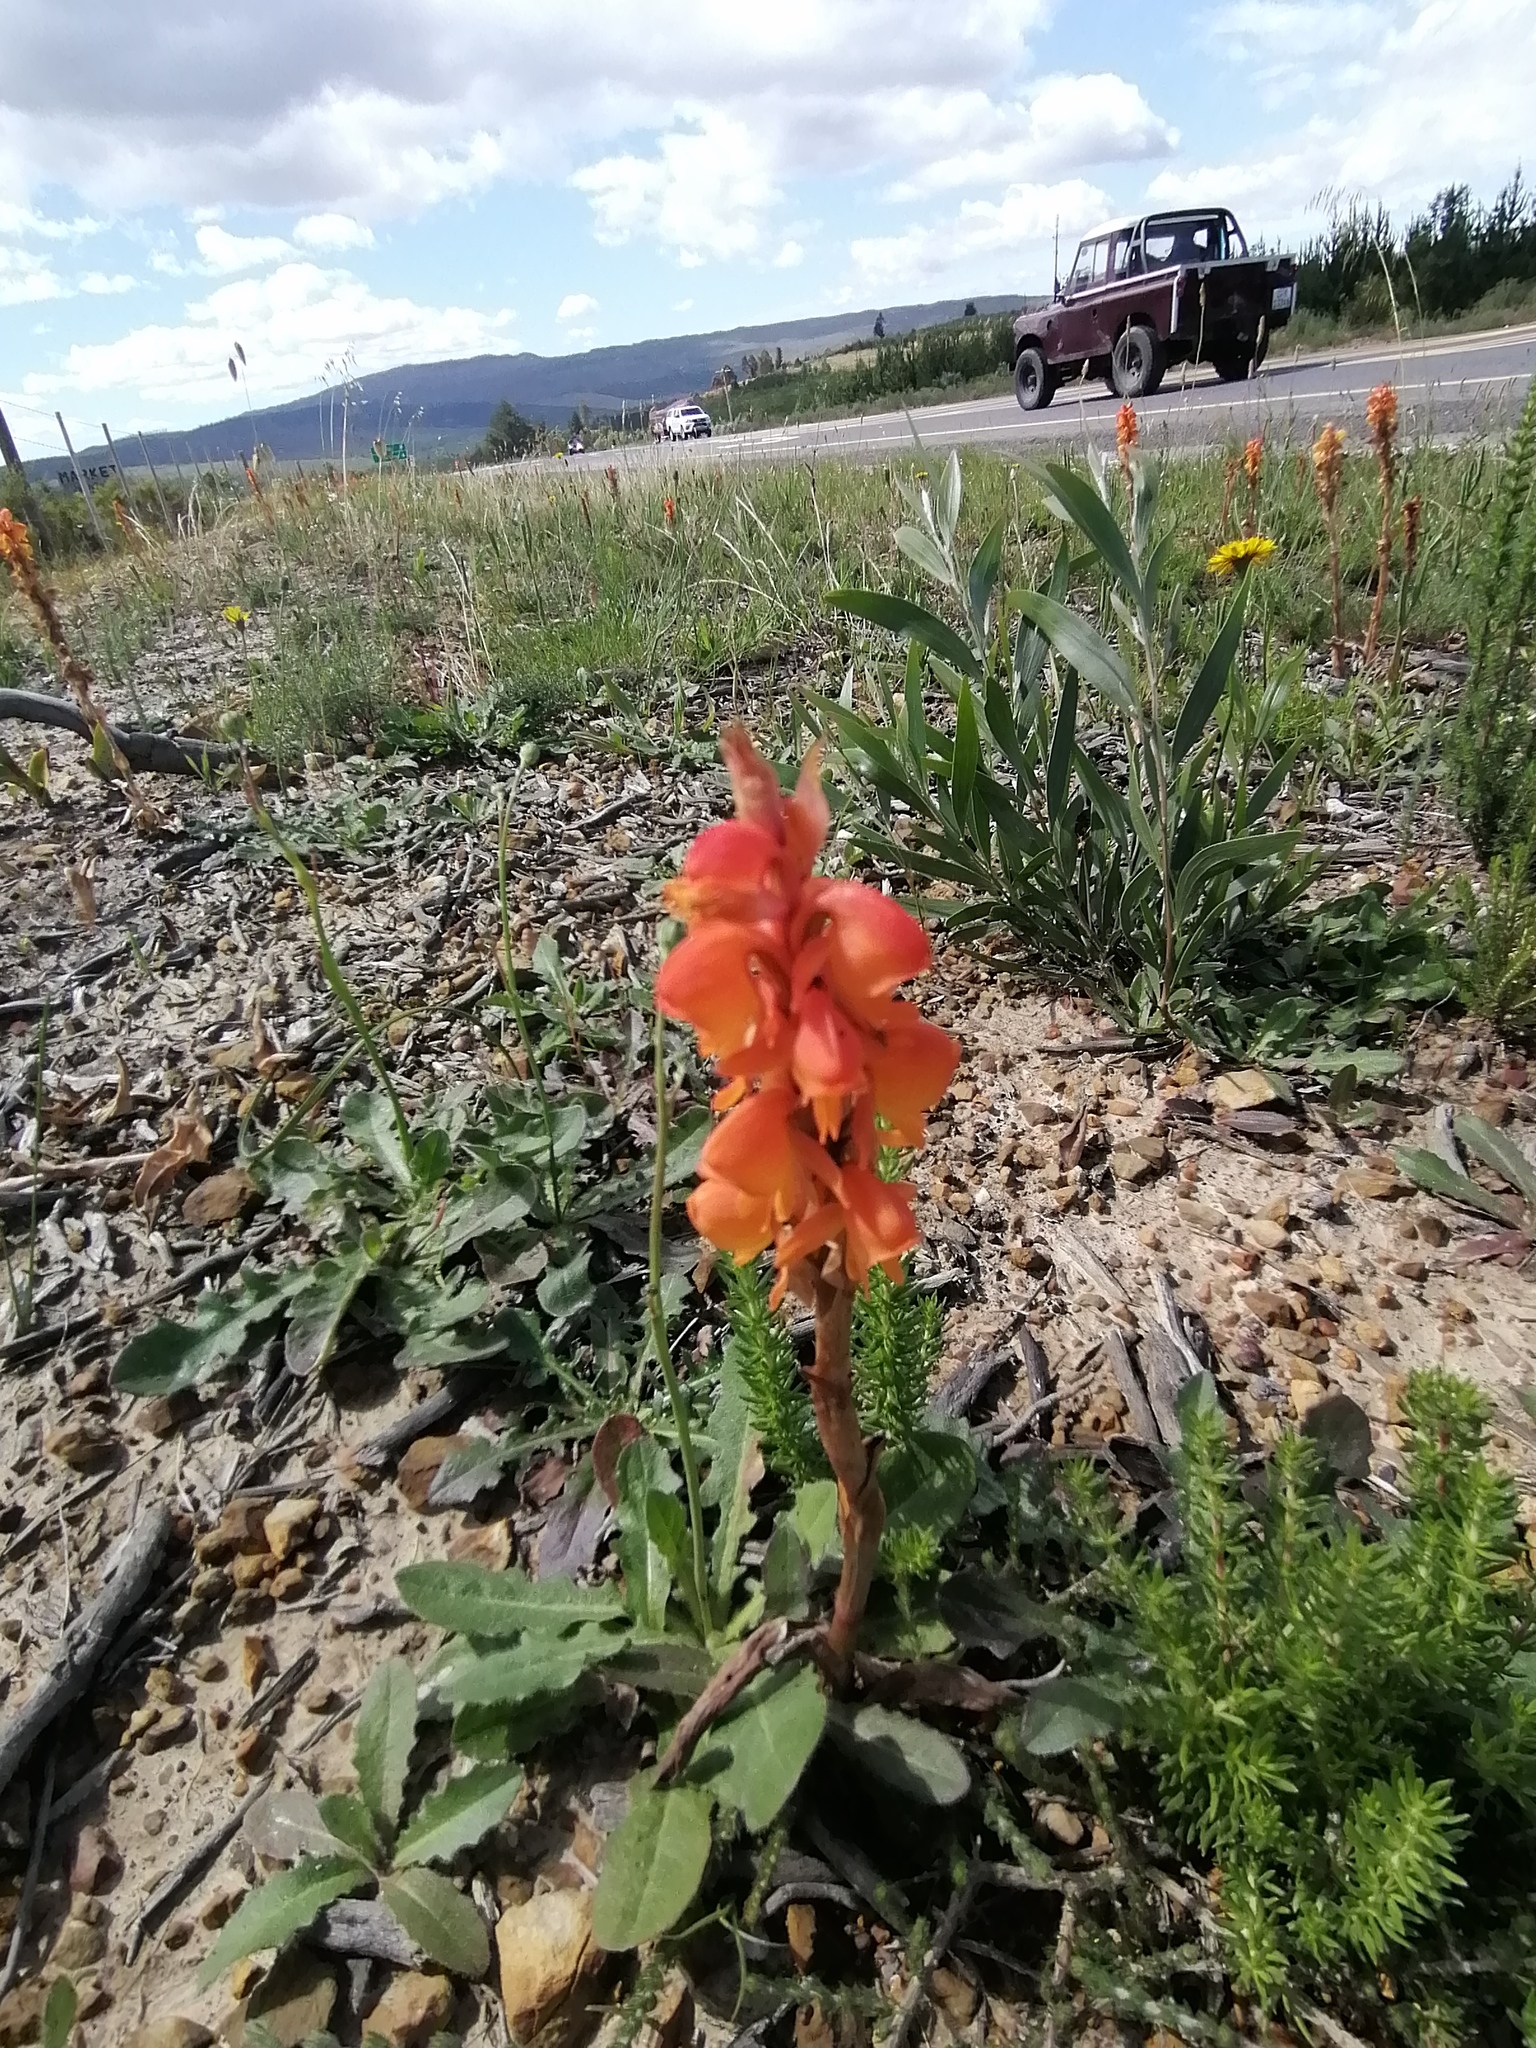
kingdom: Plantae
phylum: Tracheophyta
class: Liliopsida
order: Asparagales
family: Orchidaceae
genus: Satyrium
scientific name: Satyrium coriifolium
